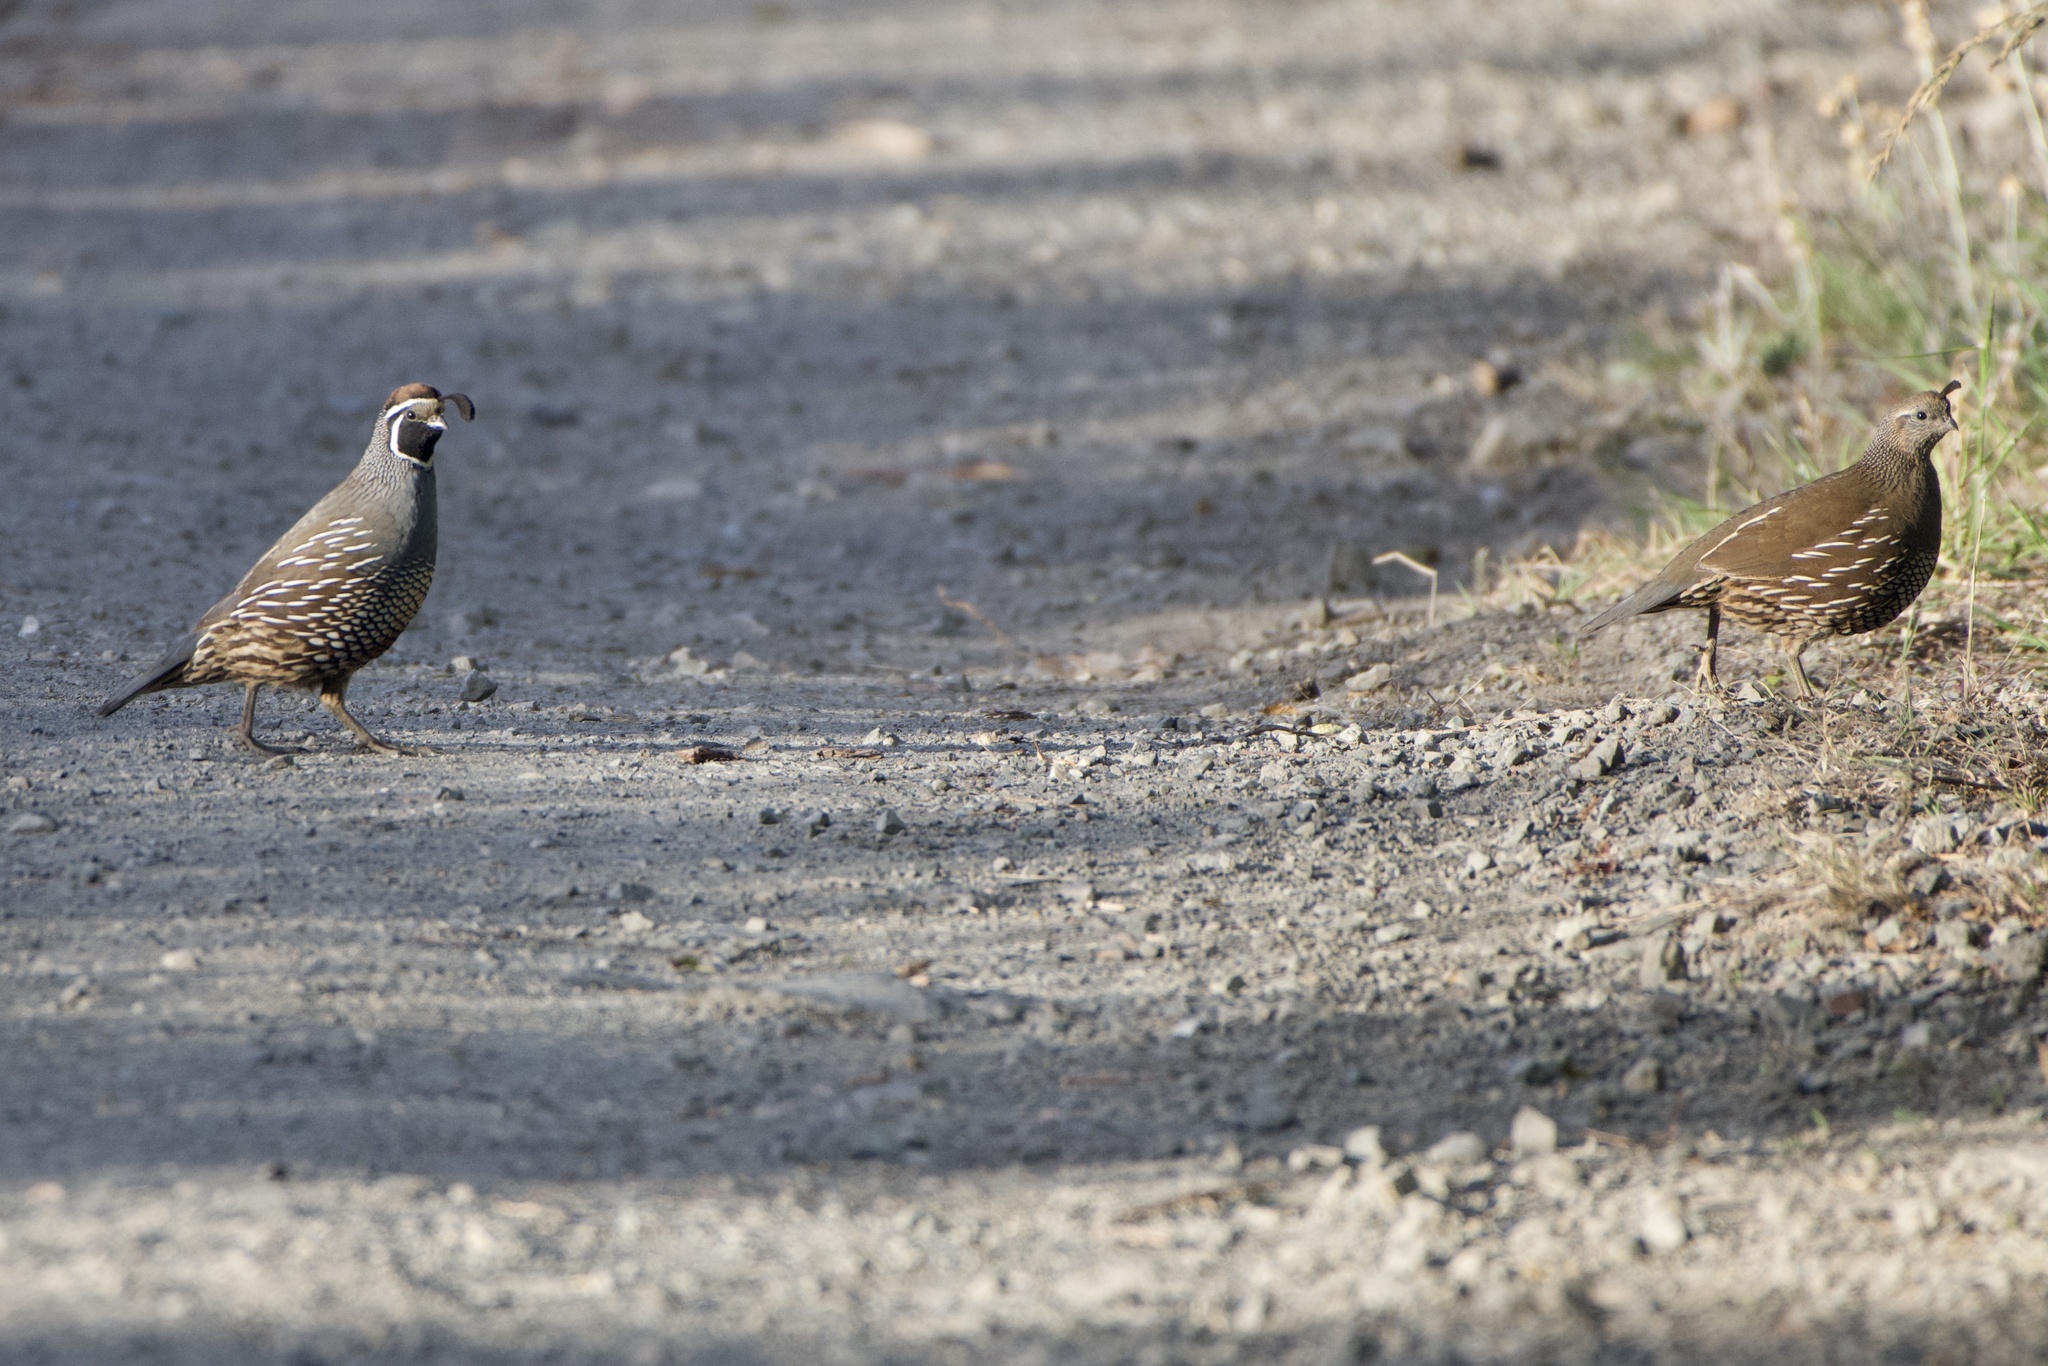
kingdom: Animalia
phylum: Chordata
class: Aves
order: Galliformes
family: Odontophoridae
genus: Callipepla
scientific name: Callipepla californica
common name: California quail
